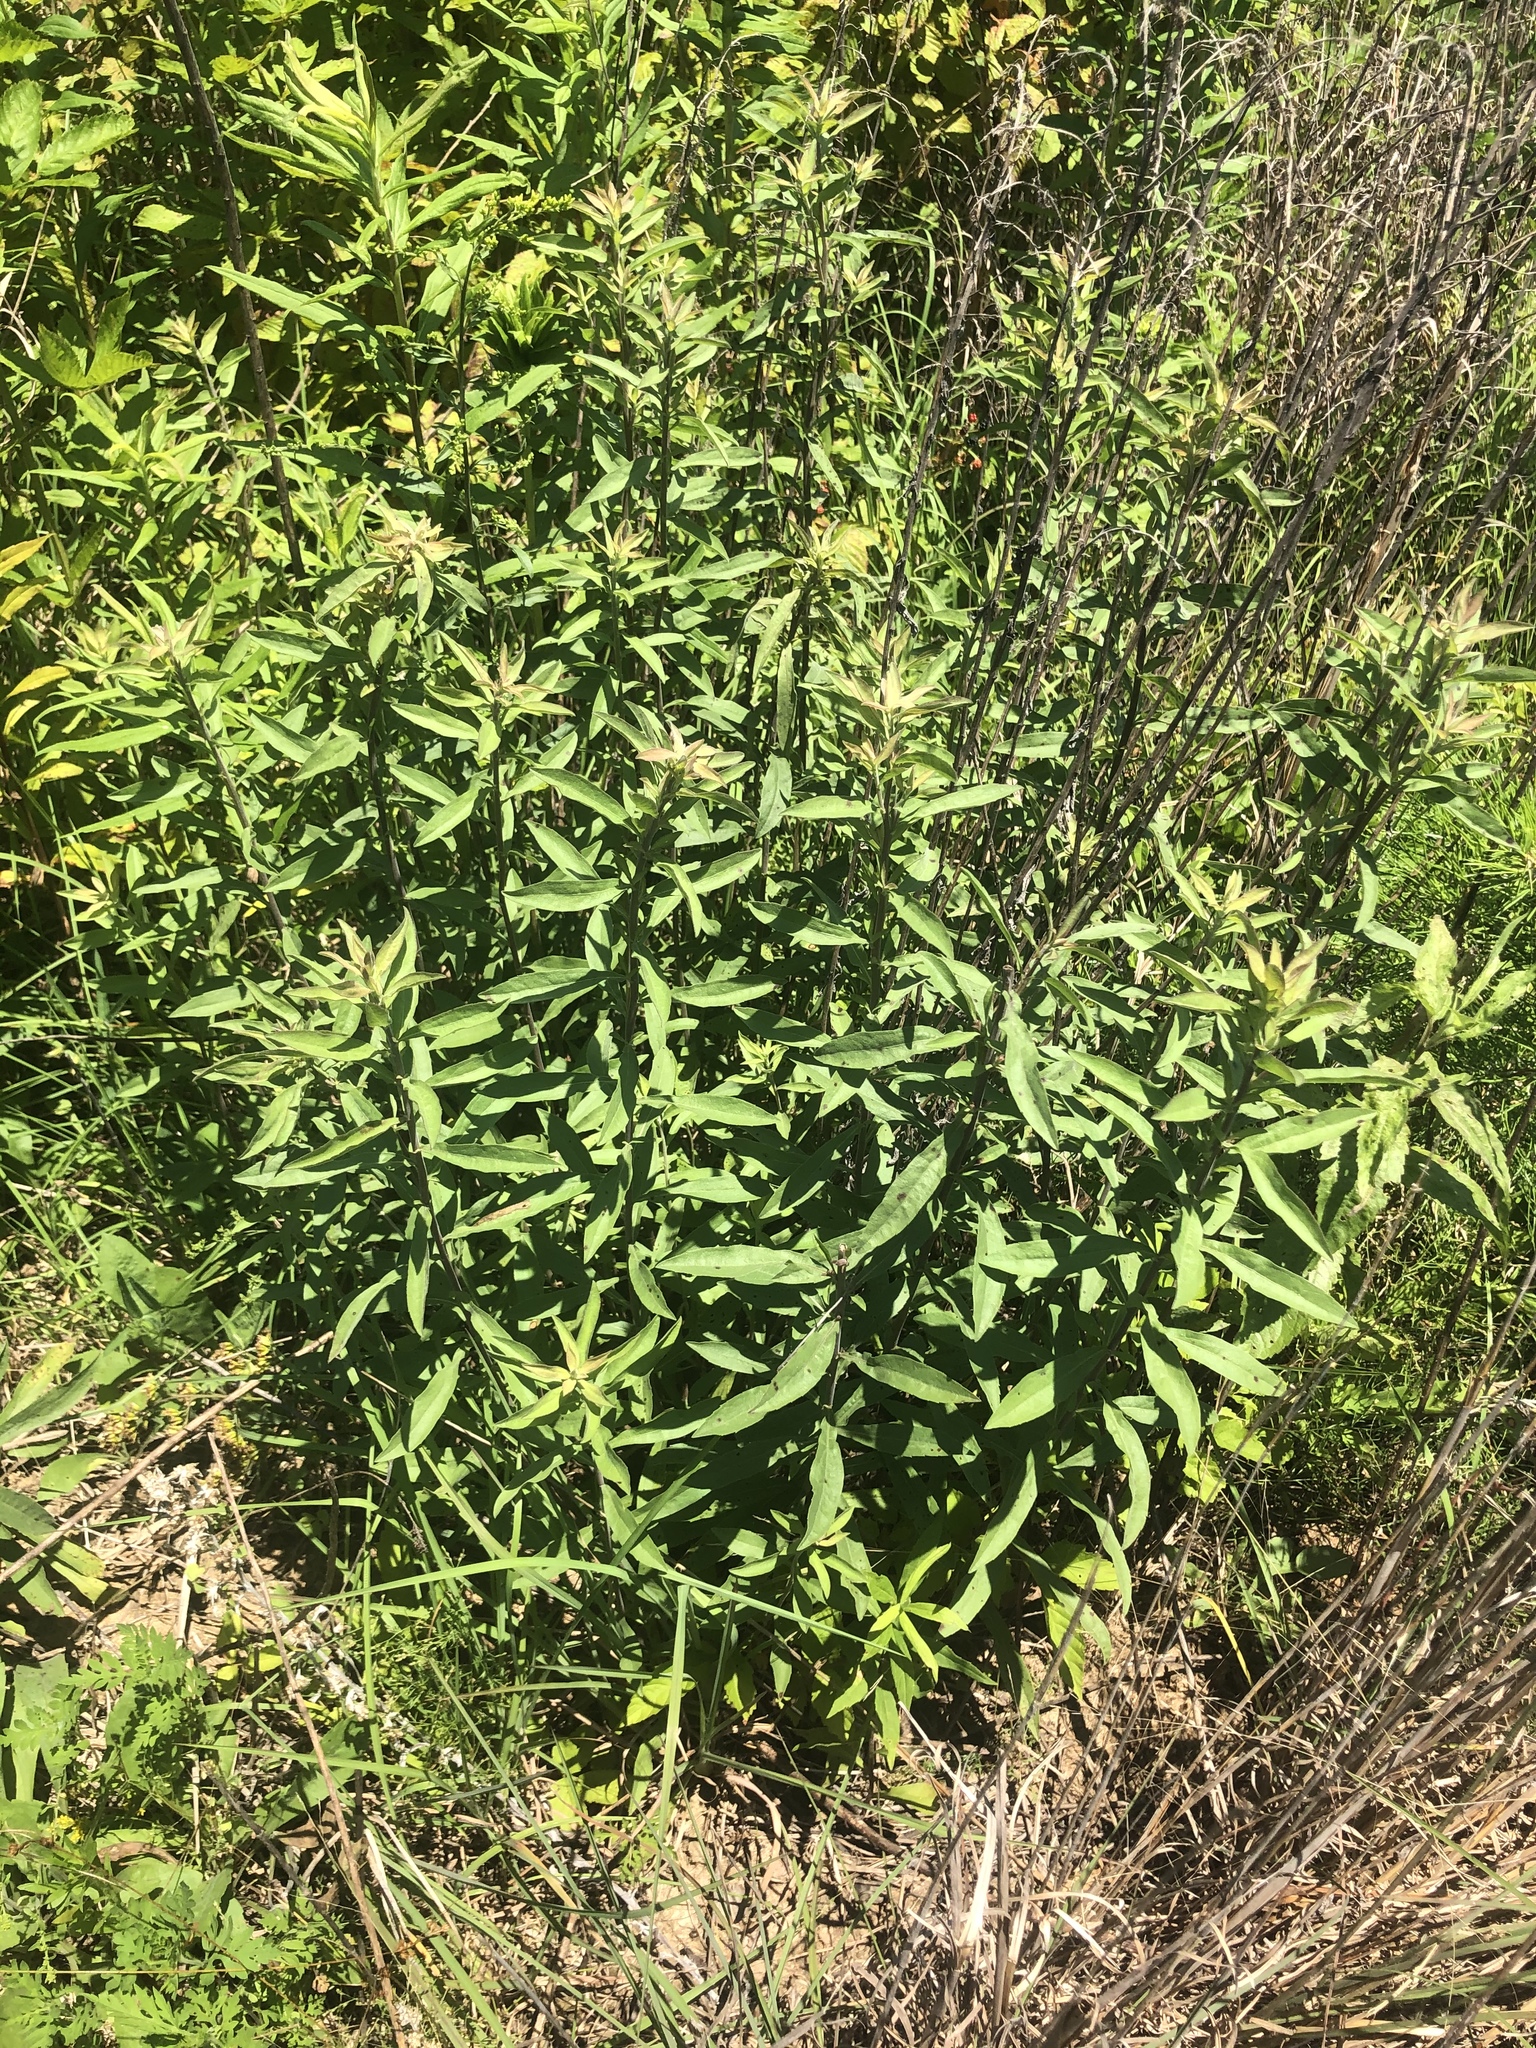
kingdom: Plantae
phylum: Tracheophyta
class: Magnoliopsida
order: Asterales
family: Asteraceae
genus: Solidago
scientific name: Solidago nemoralis
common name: Grey goldenrod
